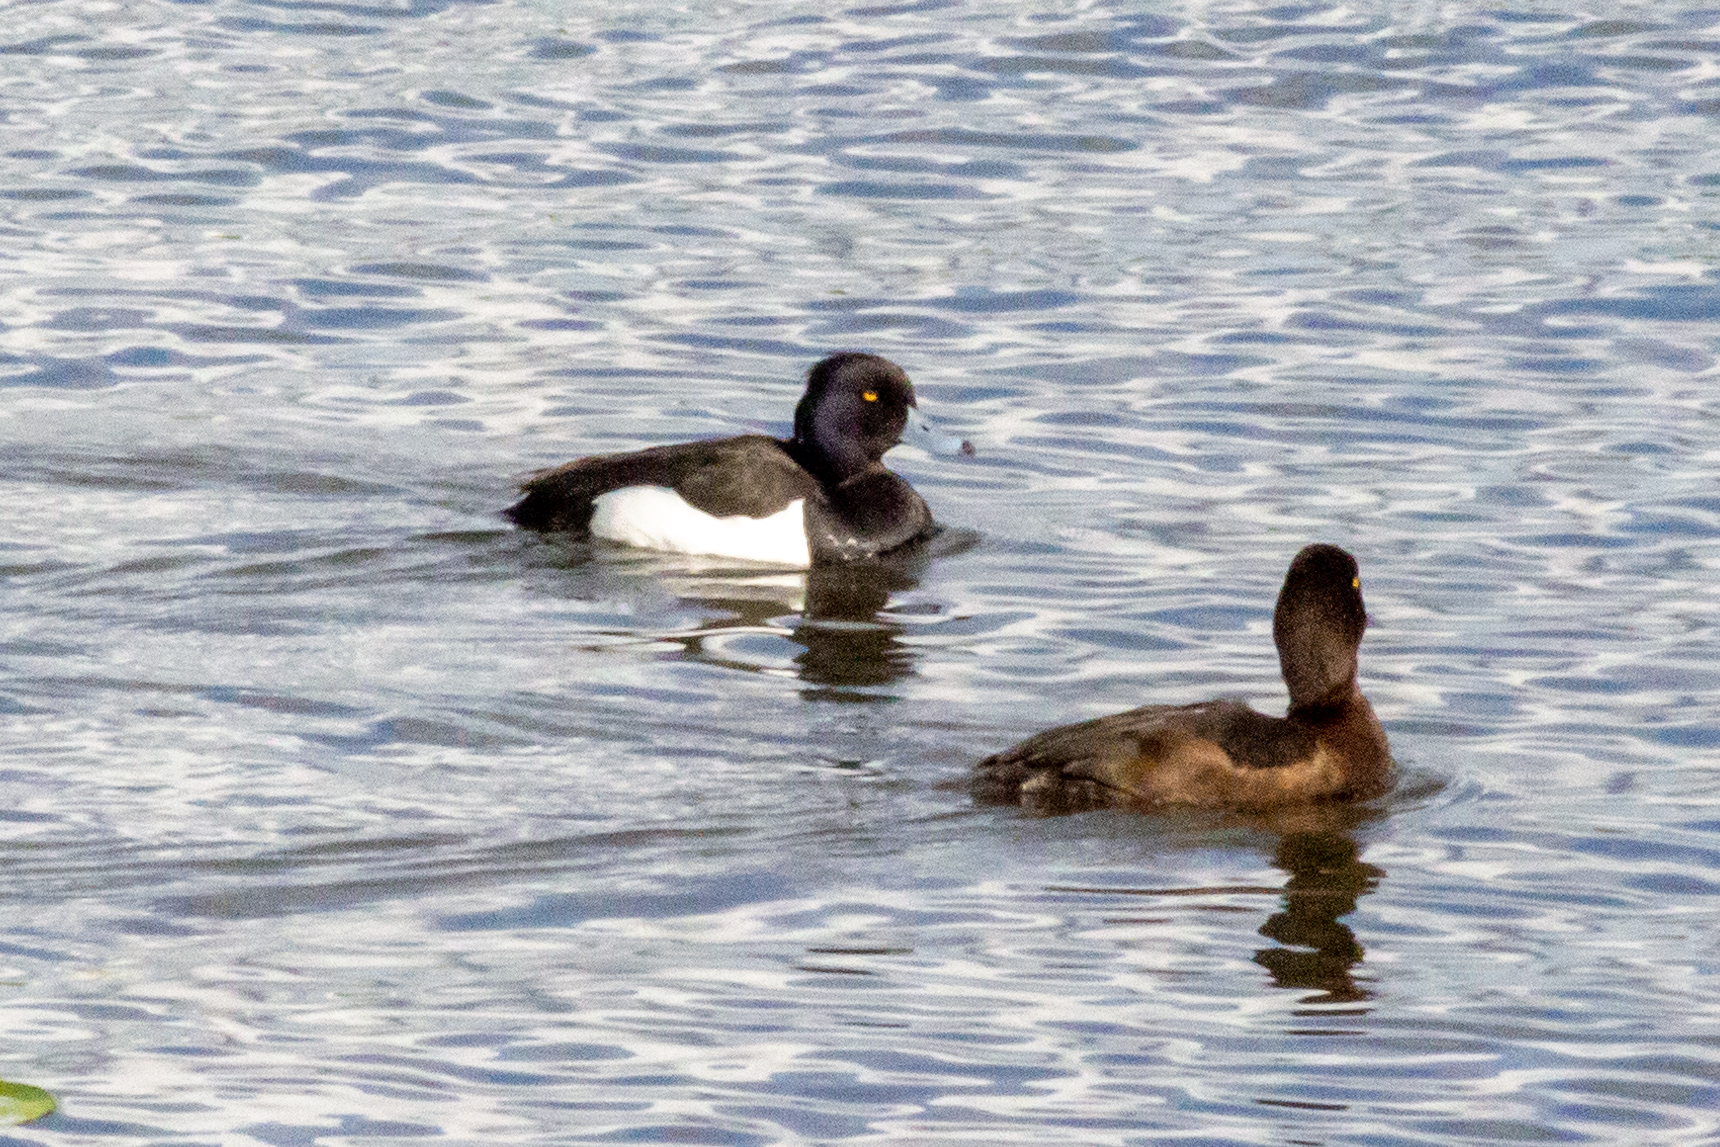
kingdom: Animalia
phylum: Chordata
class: Aves
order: Anseriformes
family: Anatidae
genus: Aythya
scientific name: Aythya fuligula
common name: Tufted duck
